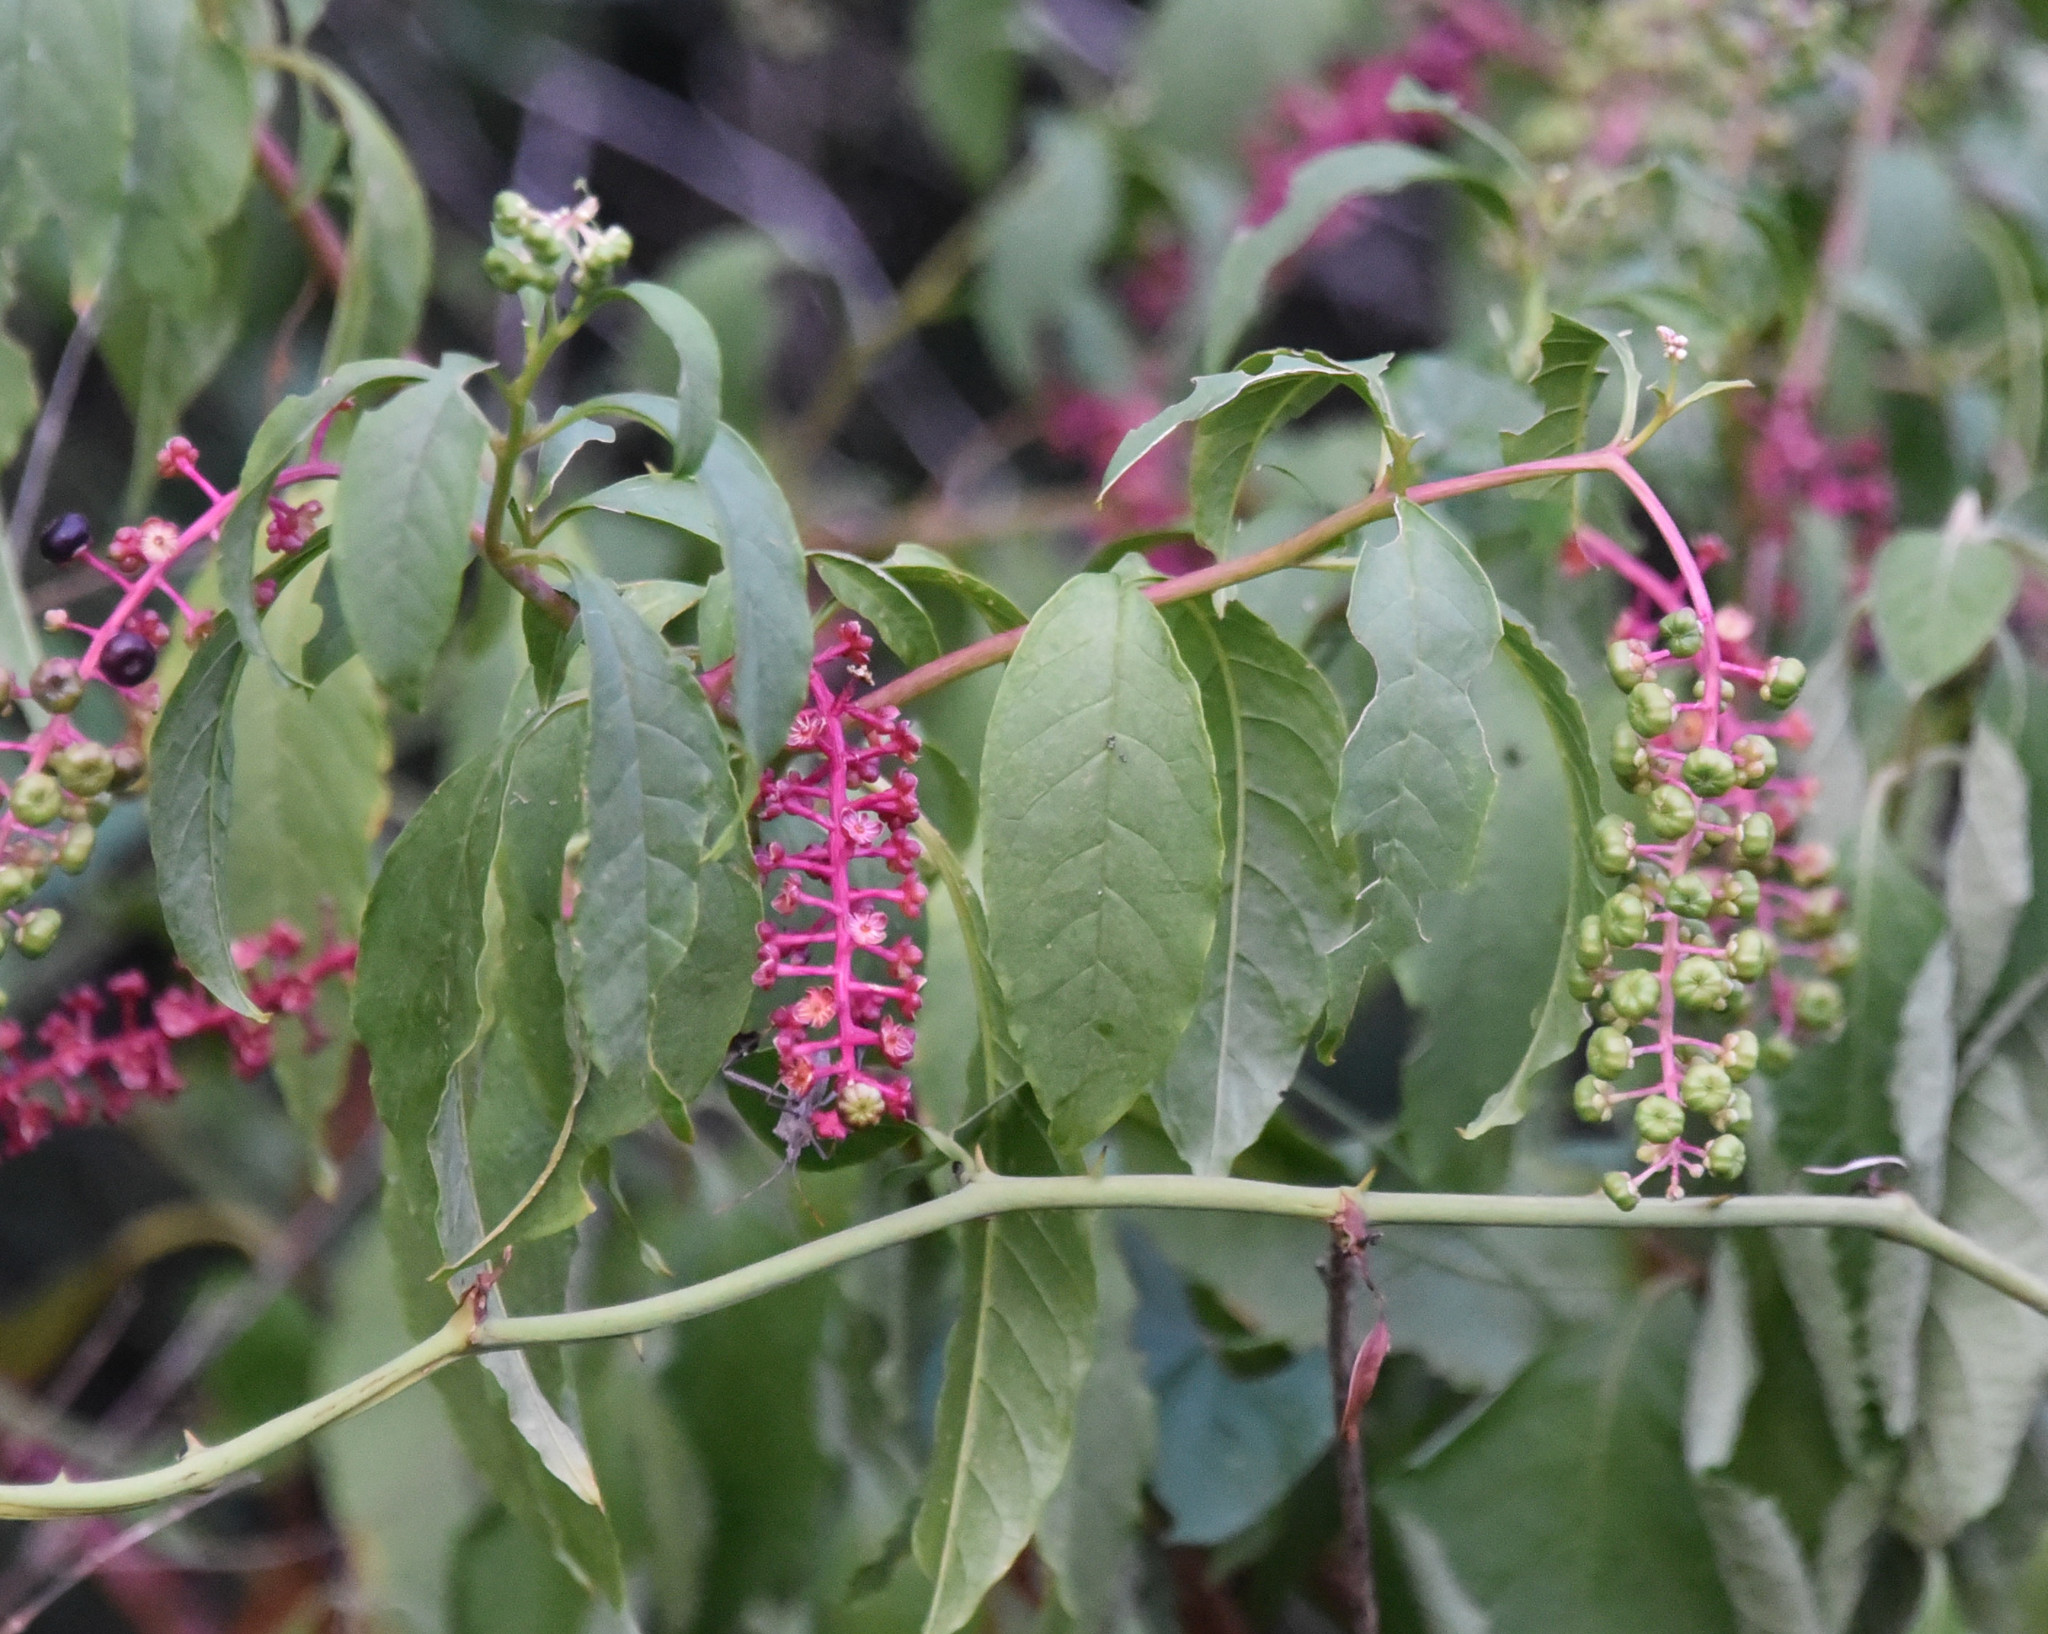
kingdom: Plantae
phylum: Tracheophyta
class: Magnoliopsida
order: Caryophyllales
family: Phytolaccaceae
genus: Phytolacca
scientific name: Phytolacca americana
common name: American pokeweed
